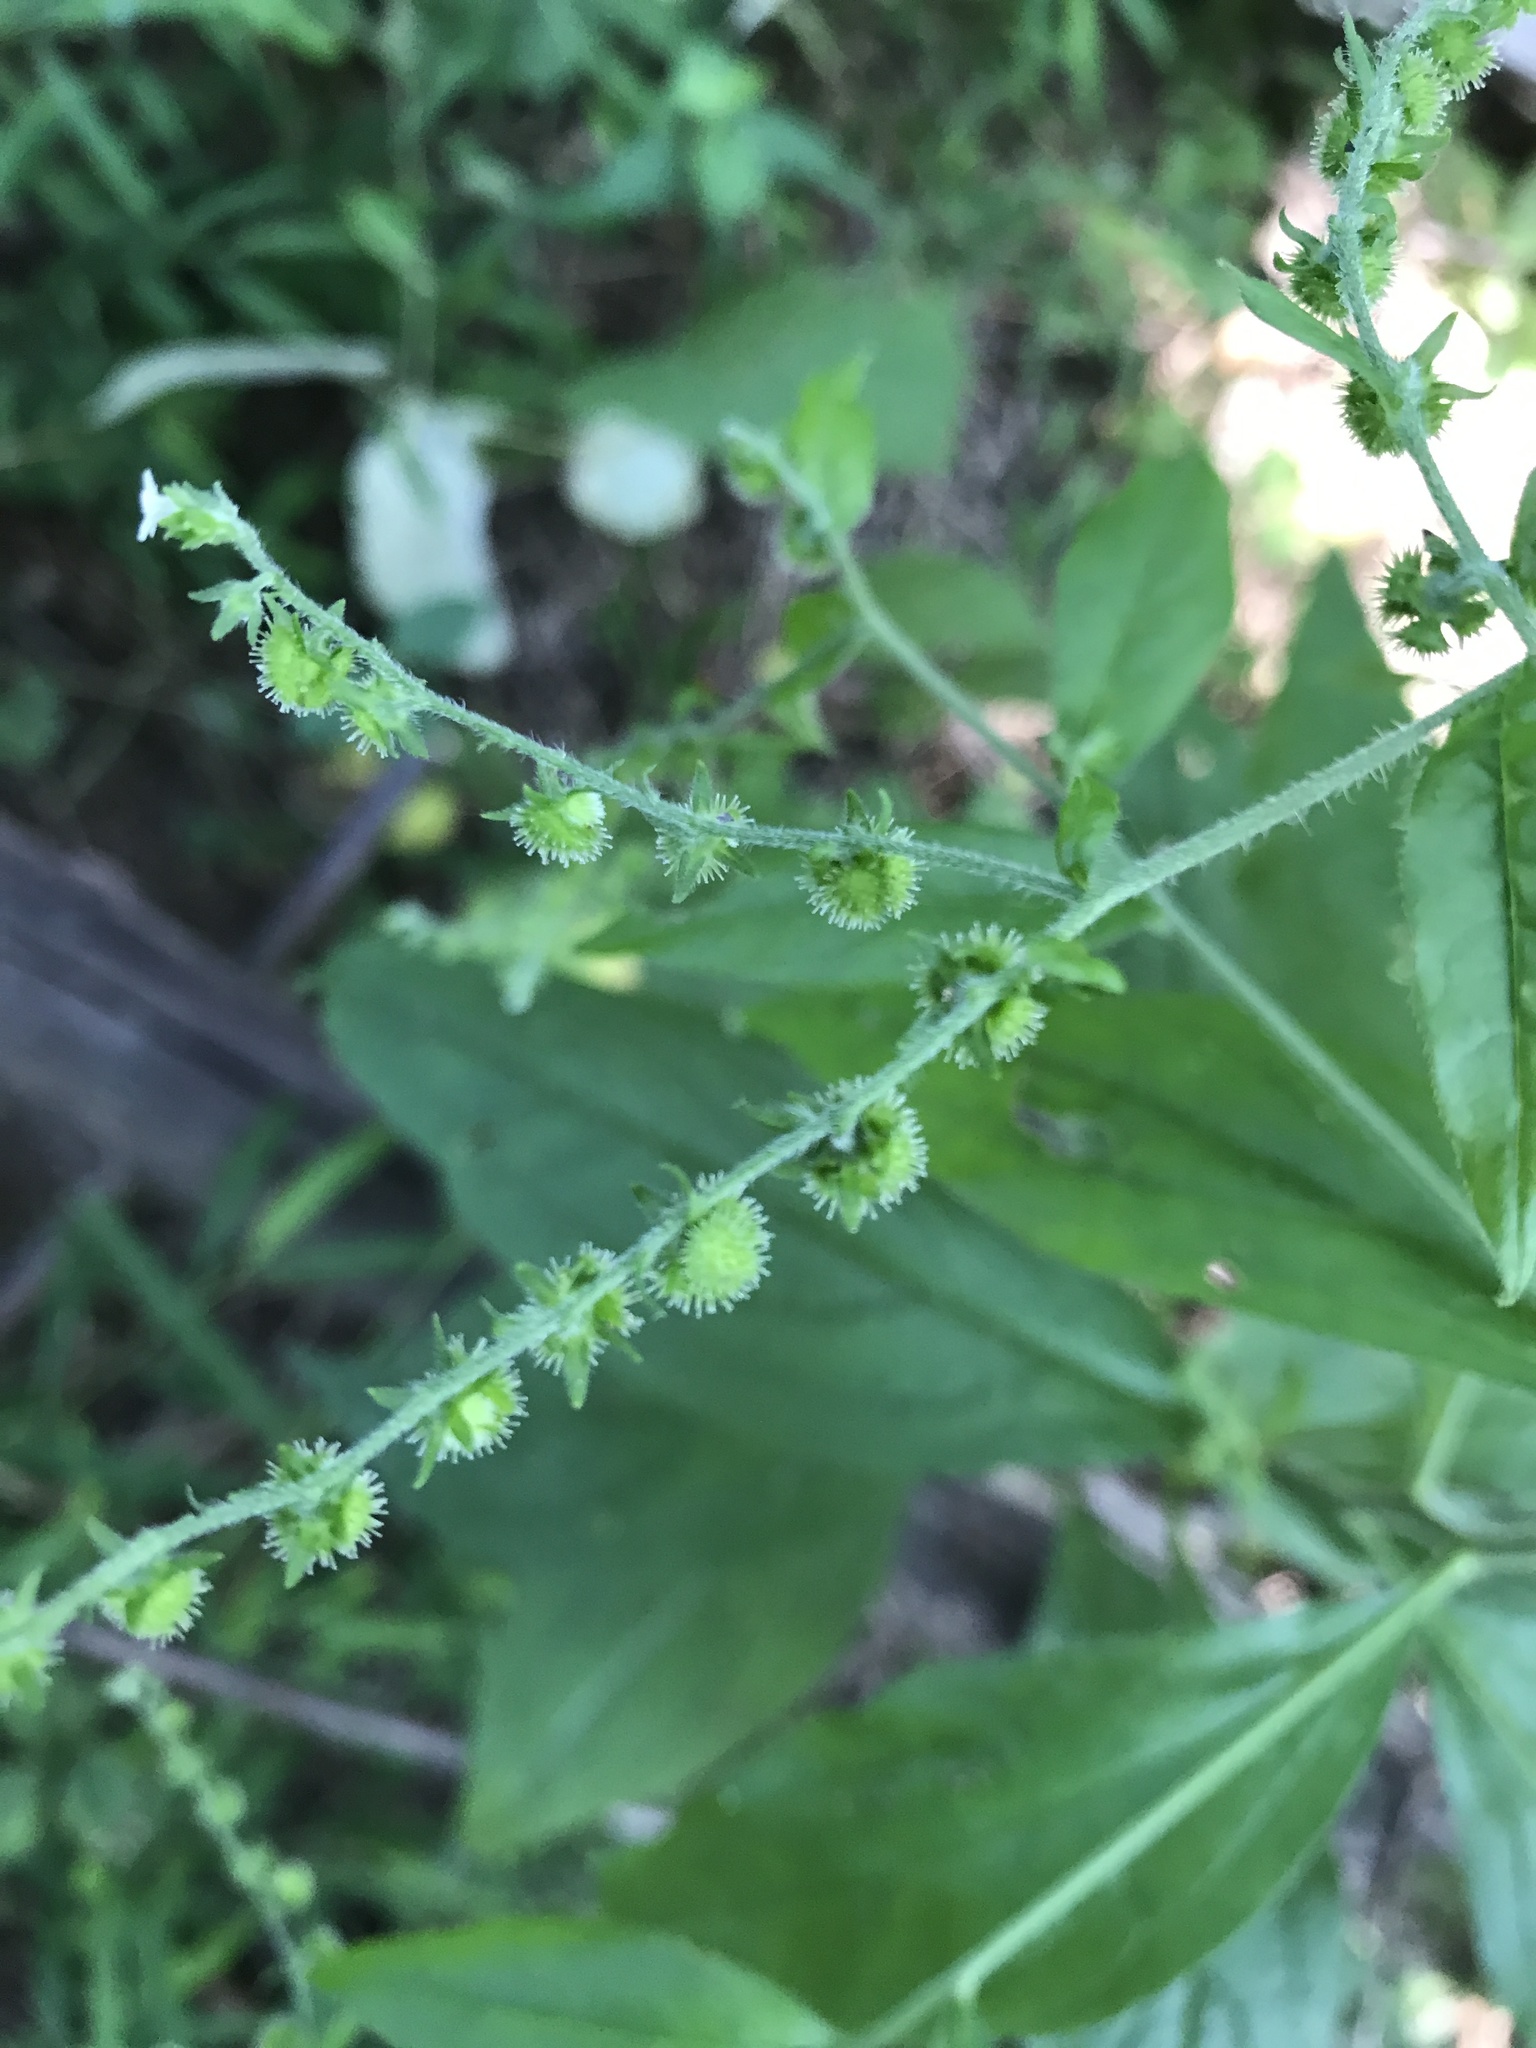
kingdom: Plantae
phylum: Tracheophyta
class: Magnoliopsida
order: Boraginales
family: Boraginaceae
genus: Hackelia
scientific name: Hackelia virginiana
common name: Beggar's-lice
